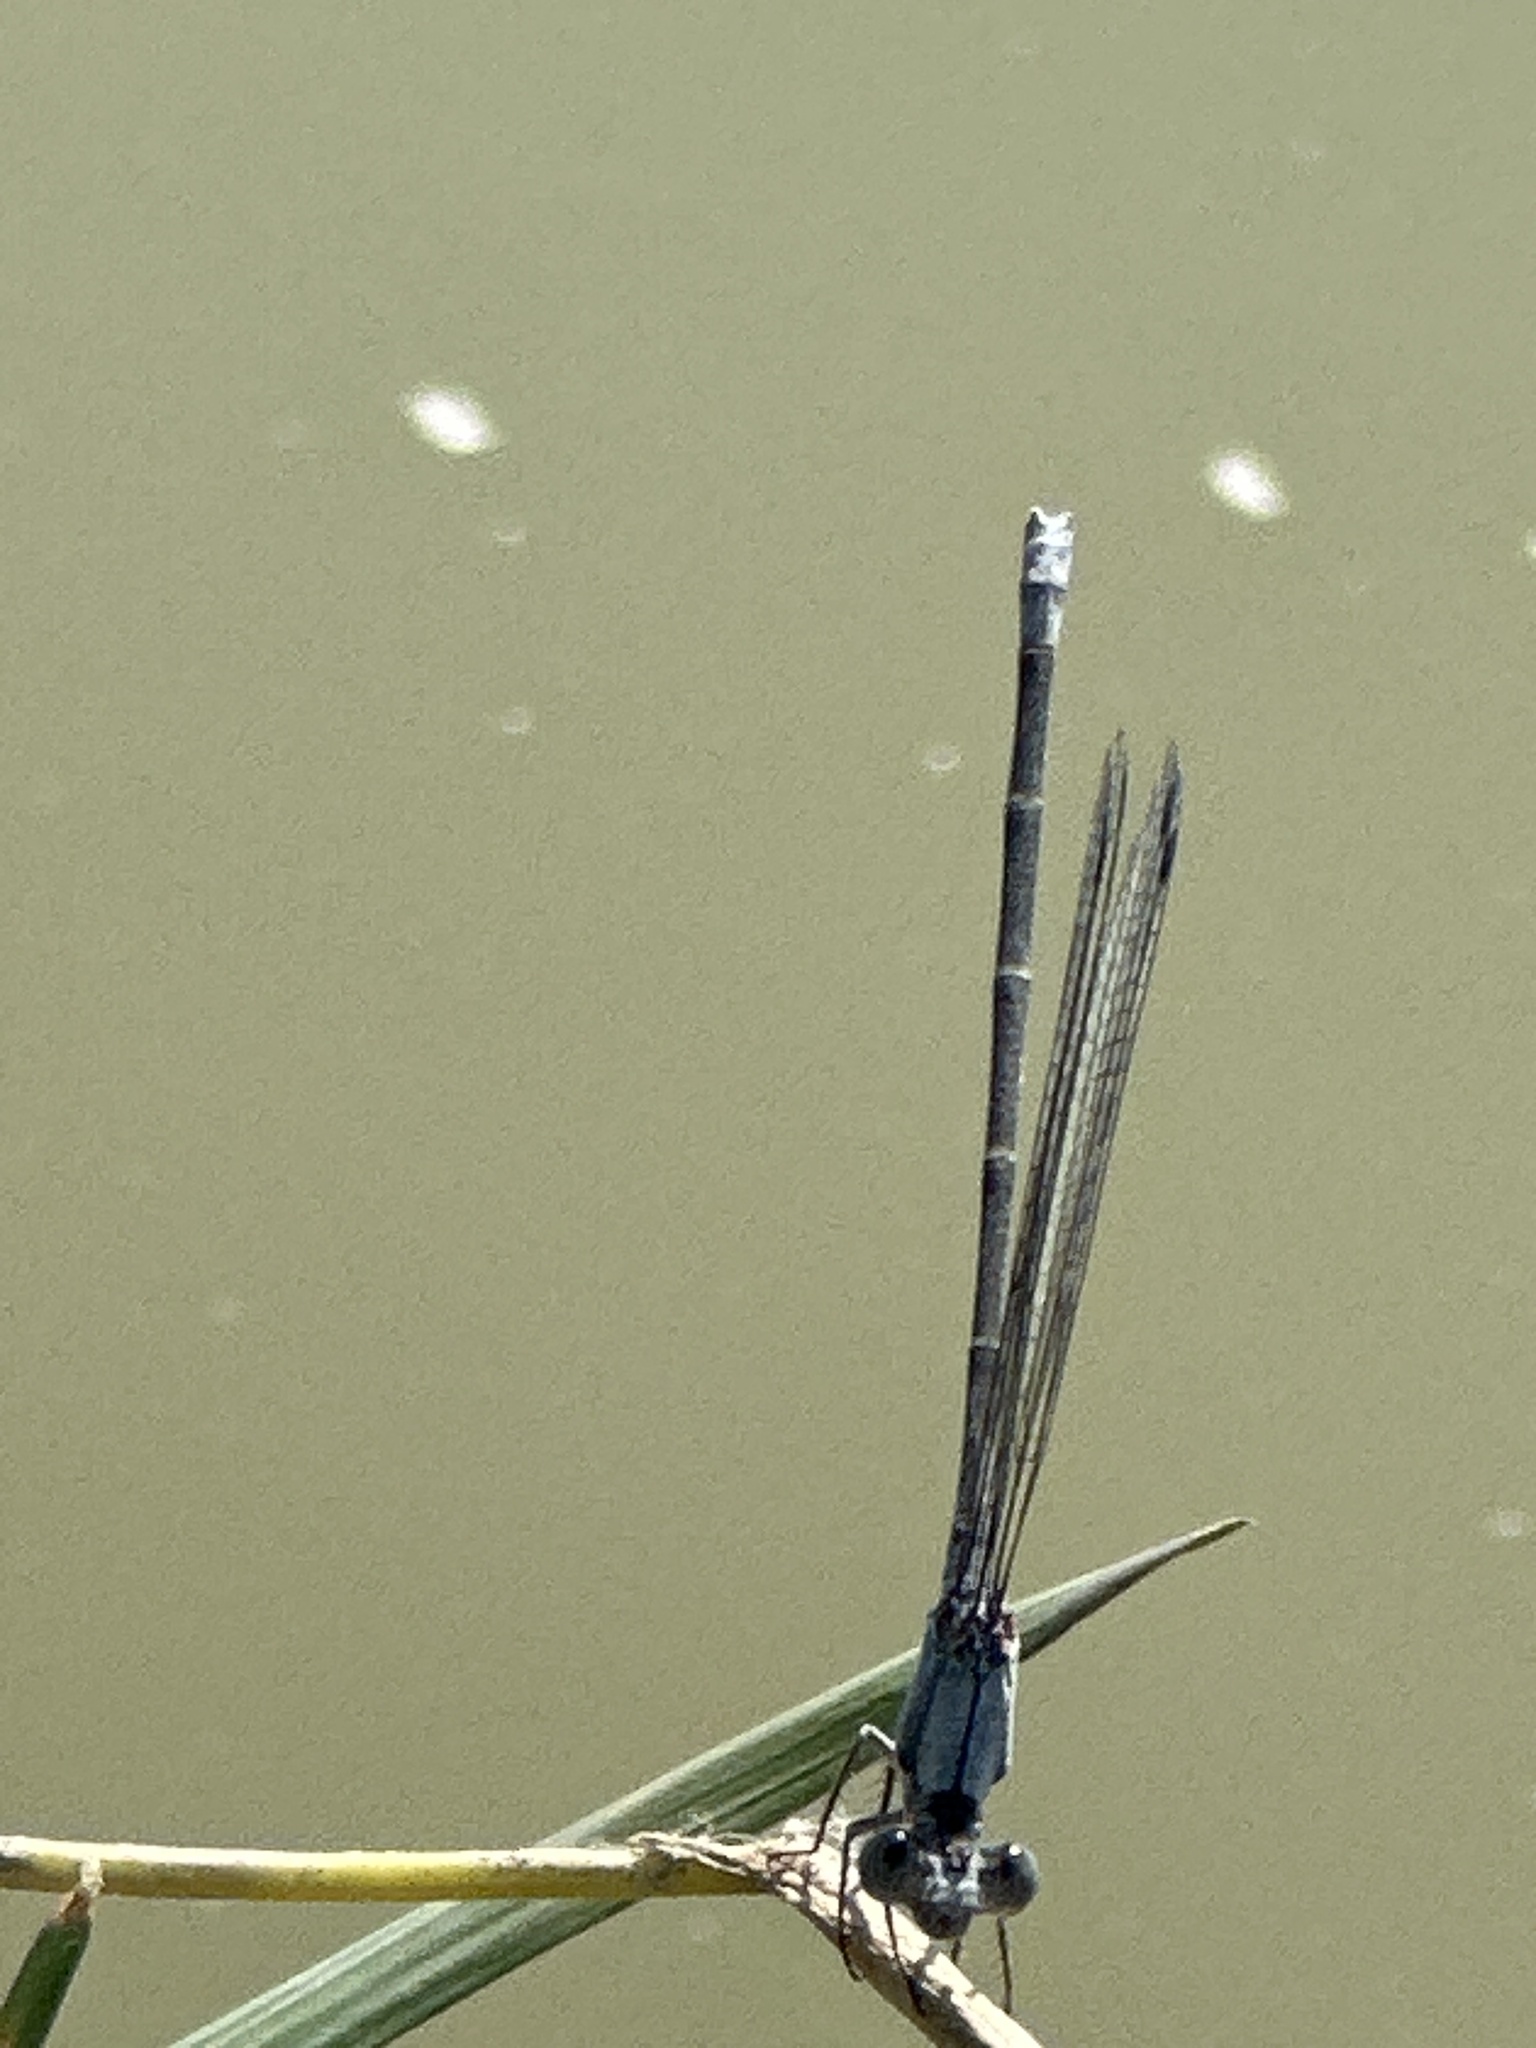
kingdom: Animalia
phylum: Arthropoda
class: Insecta
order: Odonata
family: Coenagrionidae
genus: Argia
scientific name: Argia moesta
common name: Powdered dancer
